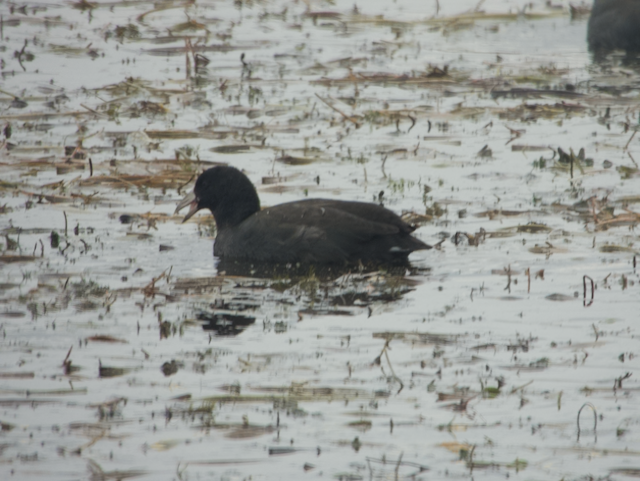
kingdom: Animalia
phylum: Chordata
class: Aves
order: Gruiformes
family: Rallidae
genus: Fulica
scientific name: Fulica americana
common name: American coot
